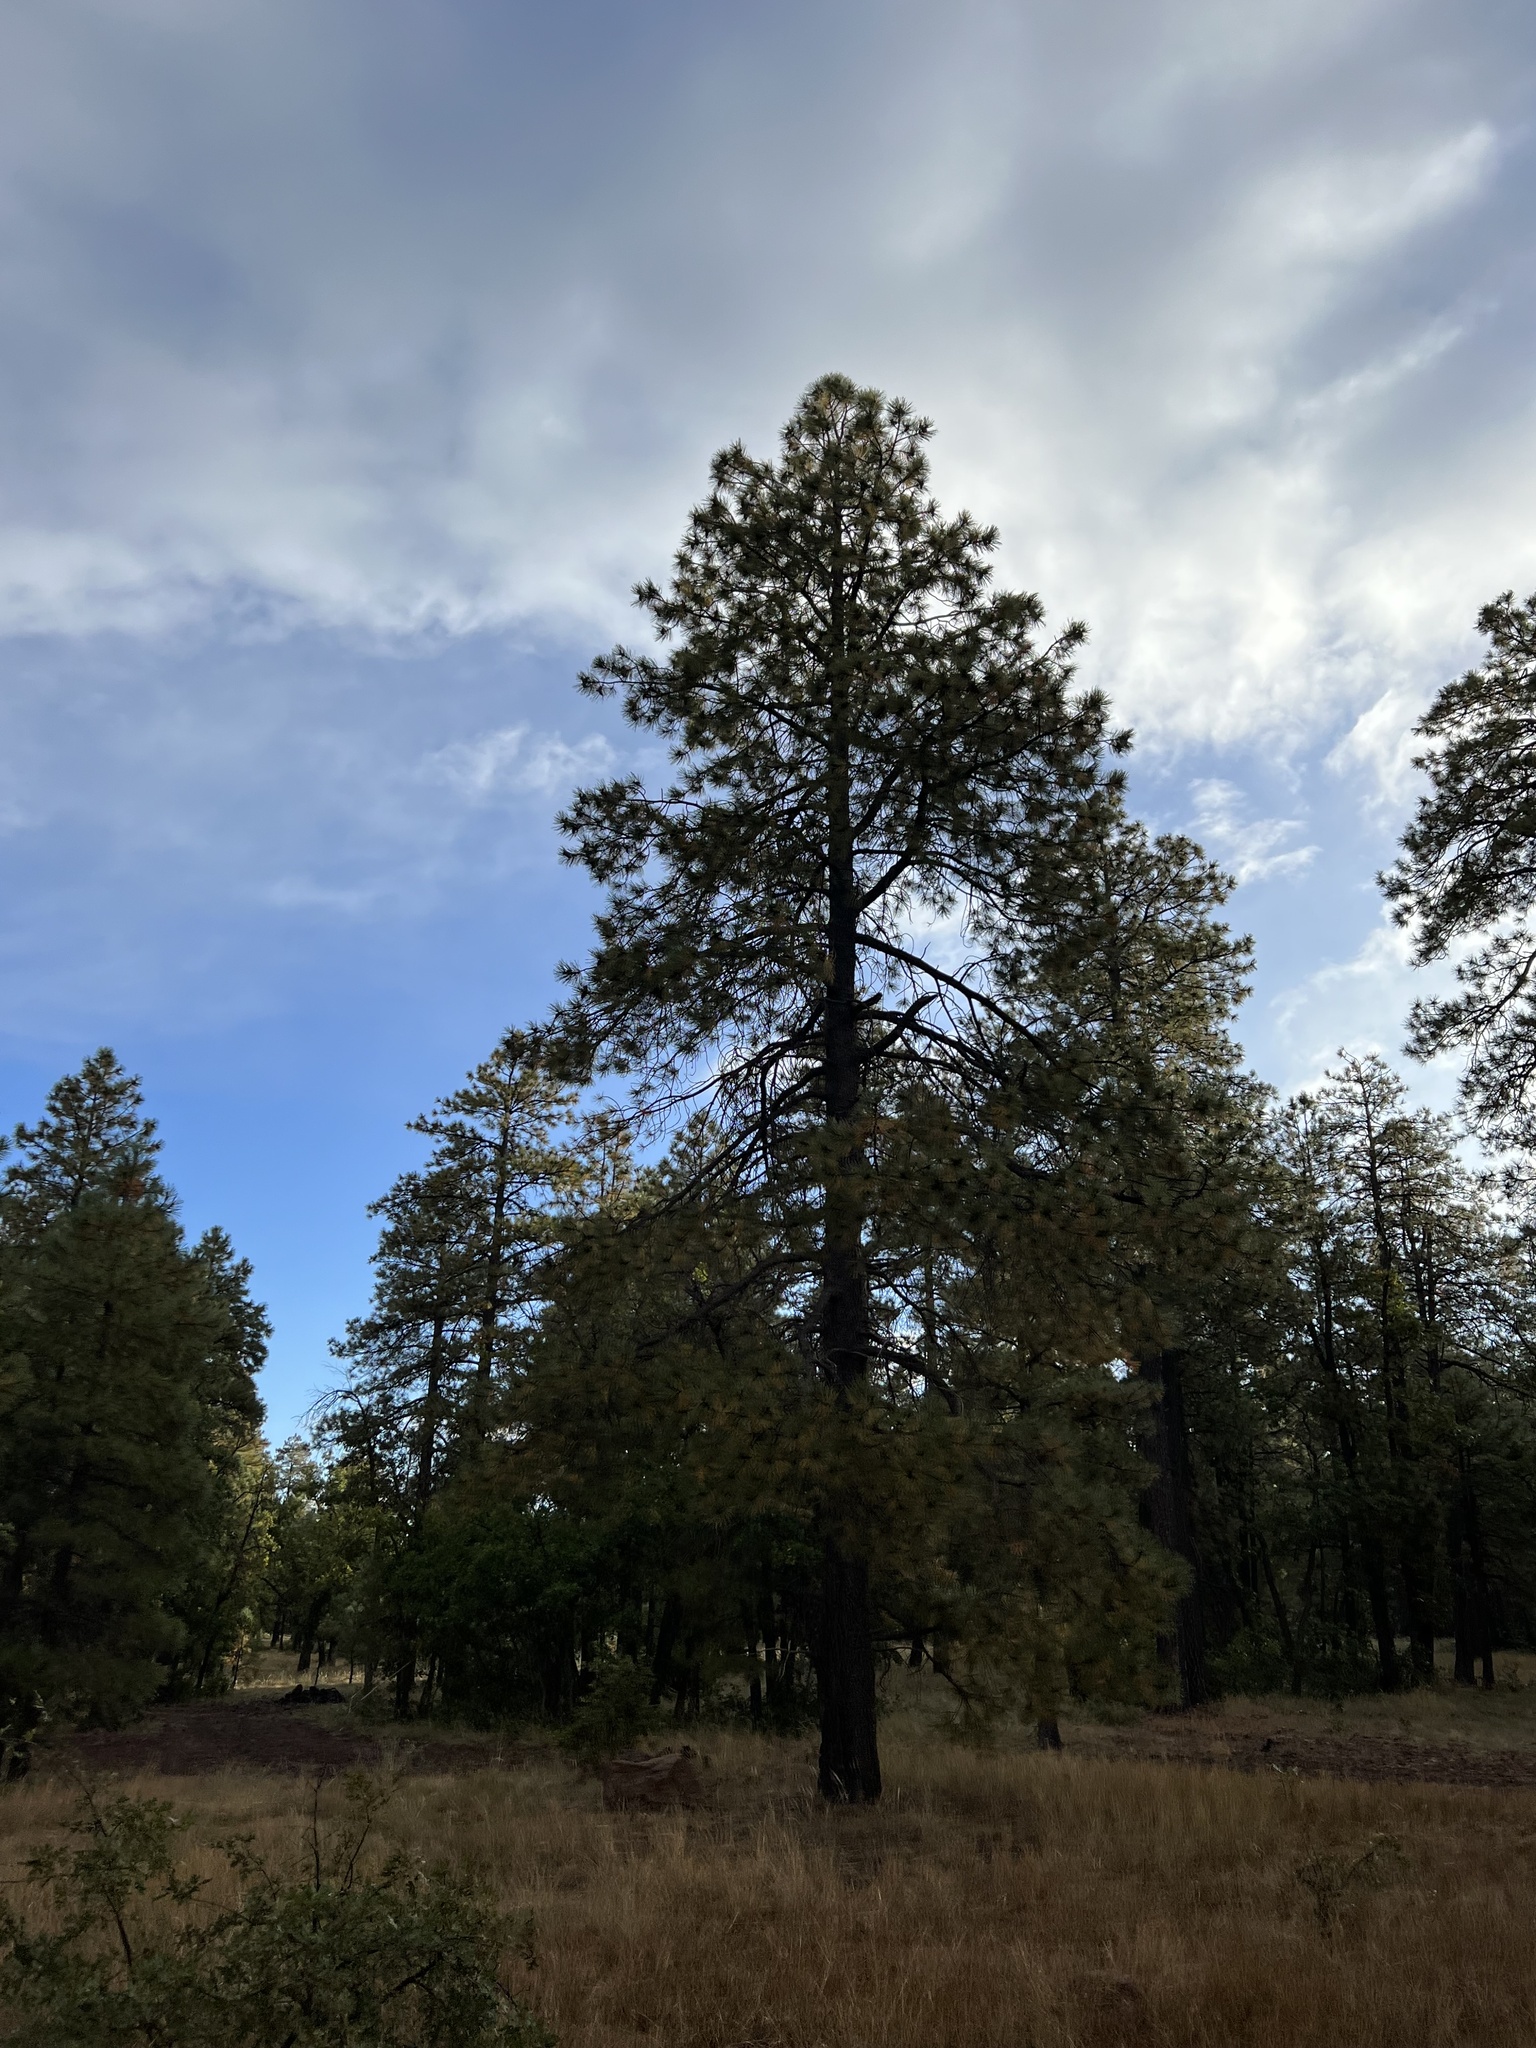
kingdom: Plantae
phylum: Tracheophyta
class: Pinopsida
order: Pinales
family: Pinaceae
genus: Pinus
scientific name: Pinus ponderosa
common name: Western yellow-pine
